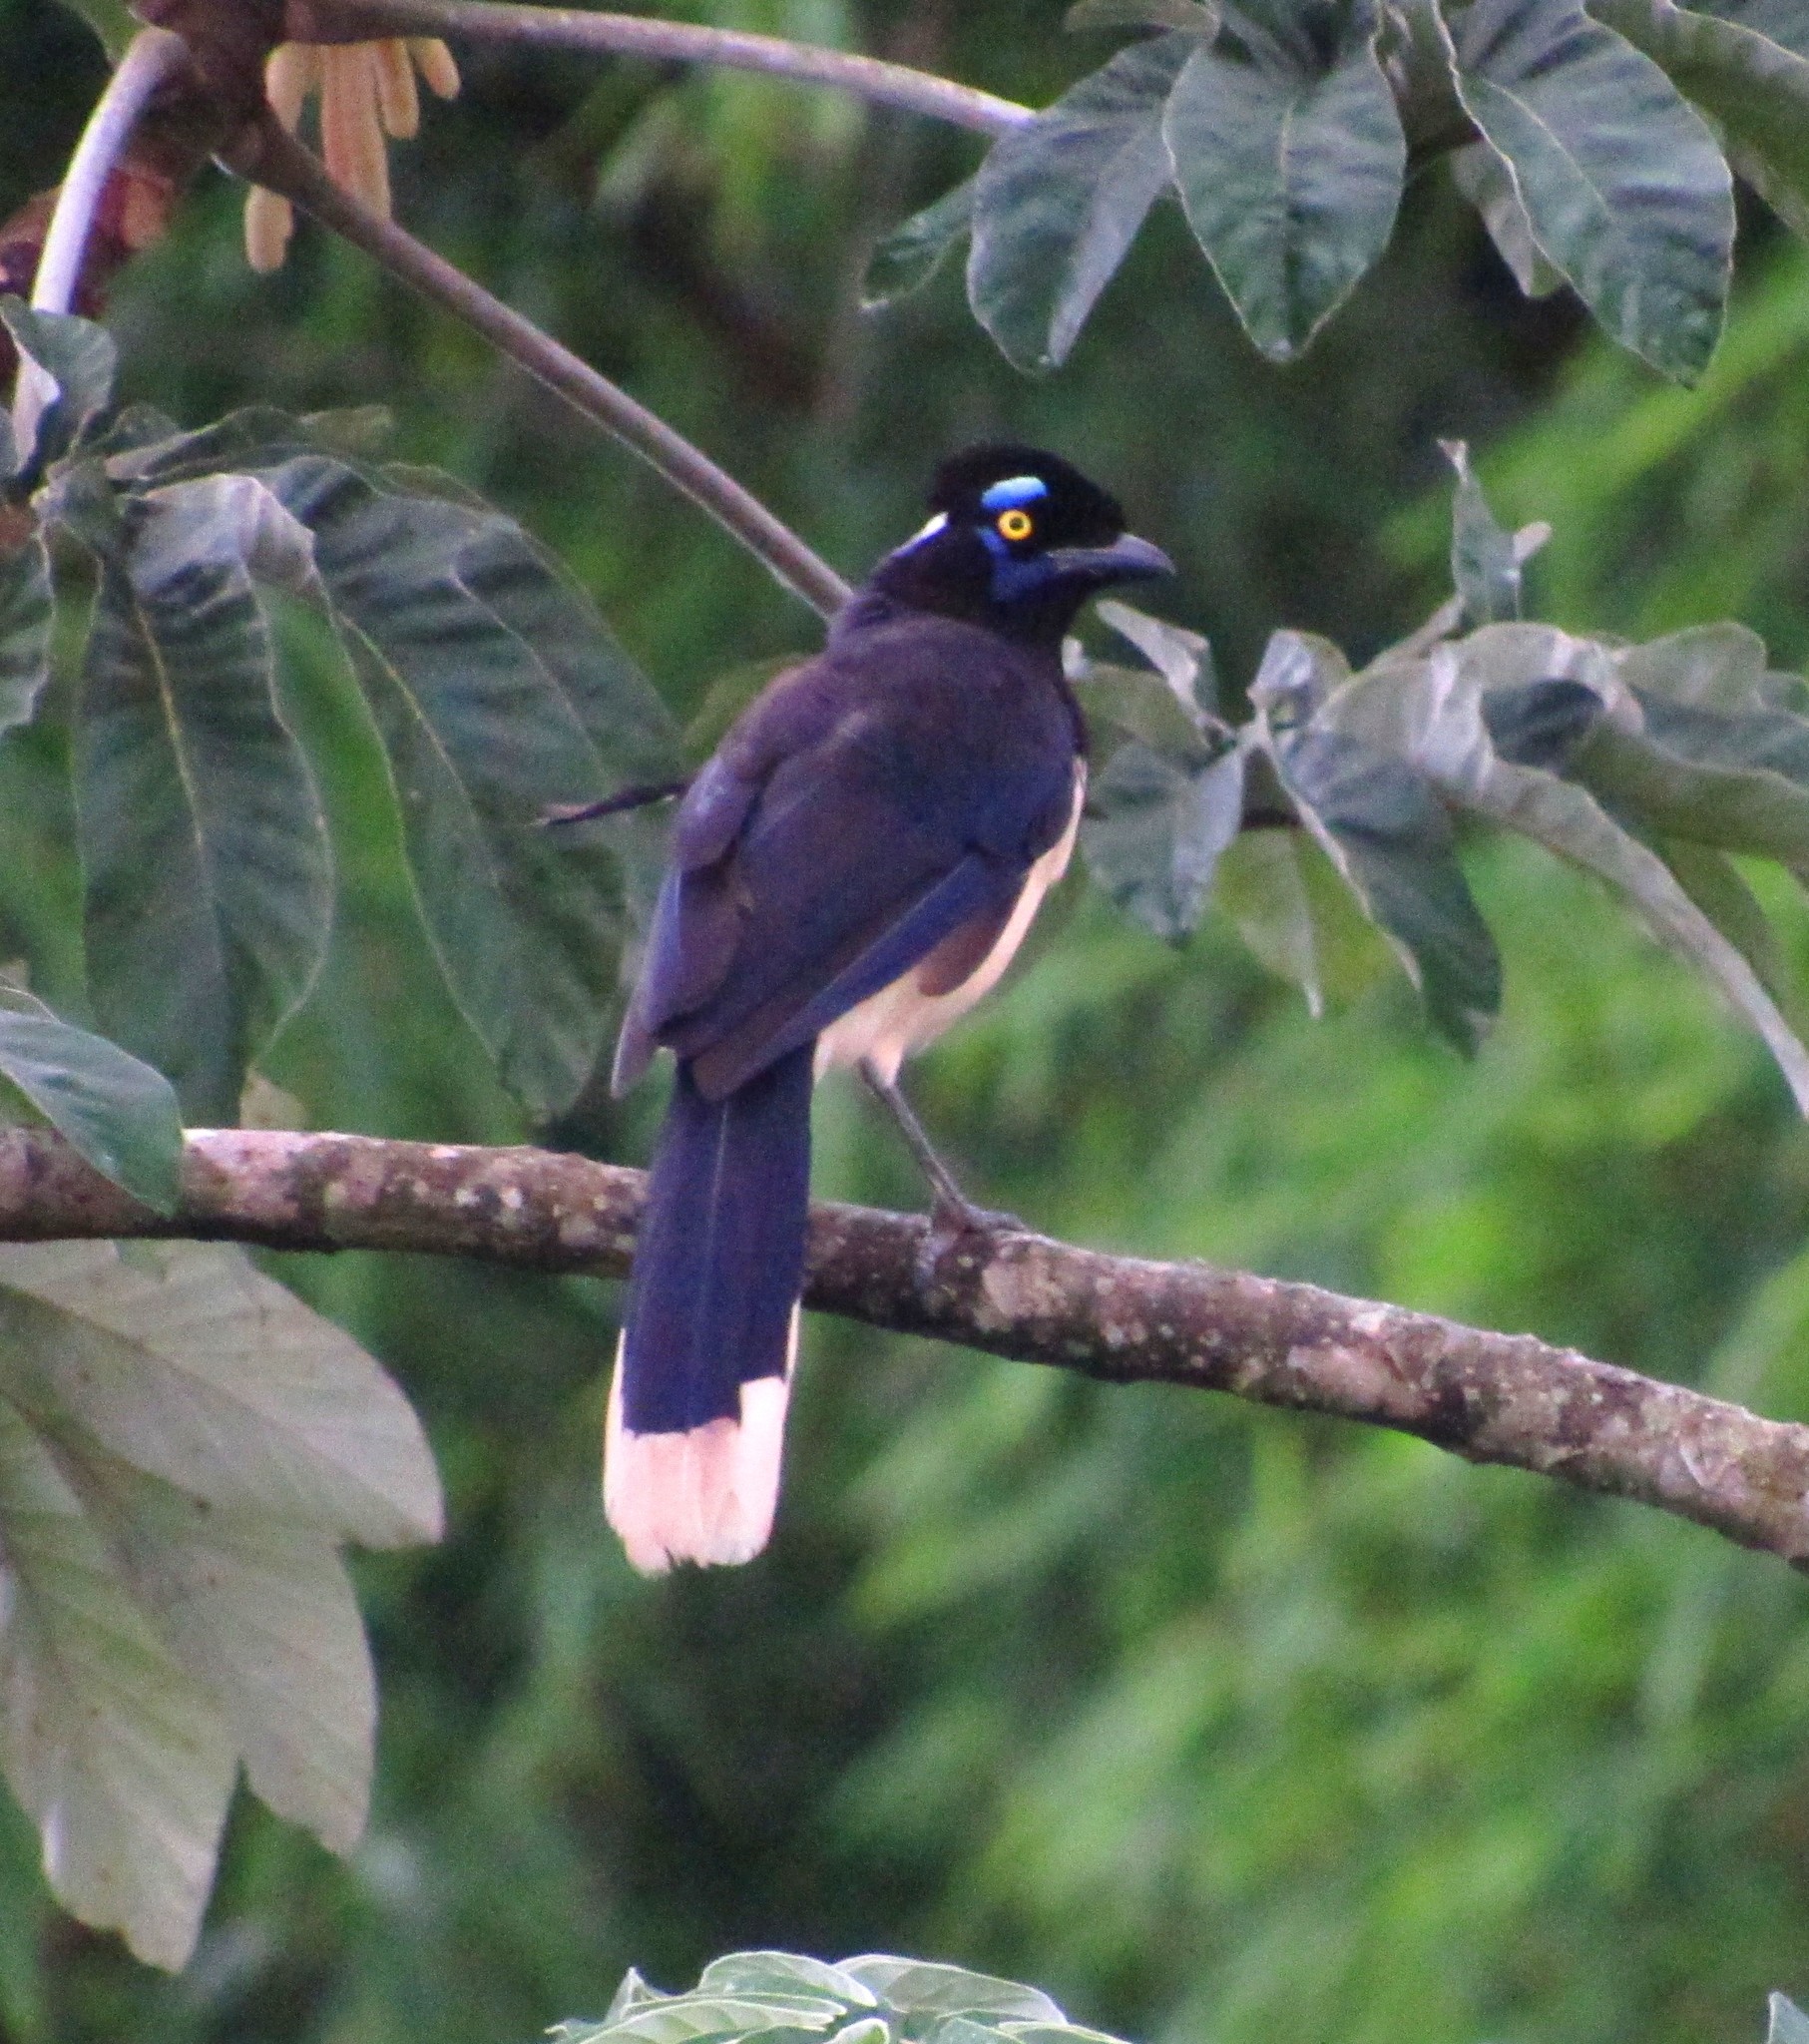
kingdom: Animalia
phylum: Chordata
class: Aves
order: Passeriformes
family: Corvidae
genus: Cyanocorax
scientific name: Cyanocorax chrysops
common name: Plush-crested jay
